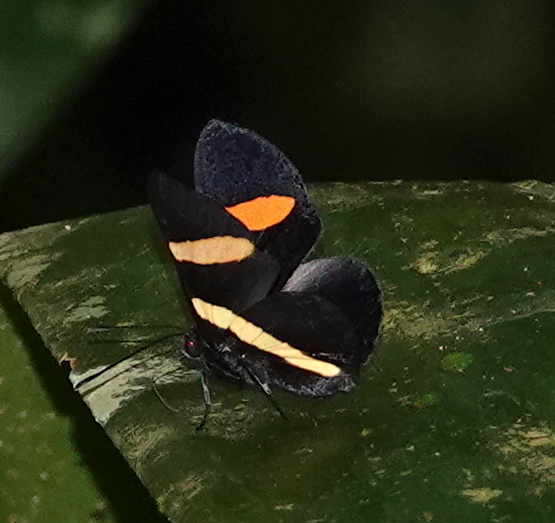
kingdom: Animalia
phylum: Arthropoda
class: Insecta
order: Lepidoptera
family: Lycaenidae
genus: Melanis
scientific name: Melanis agyrtus
